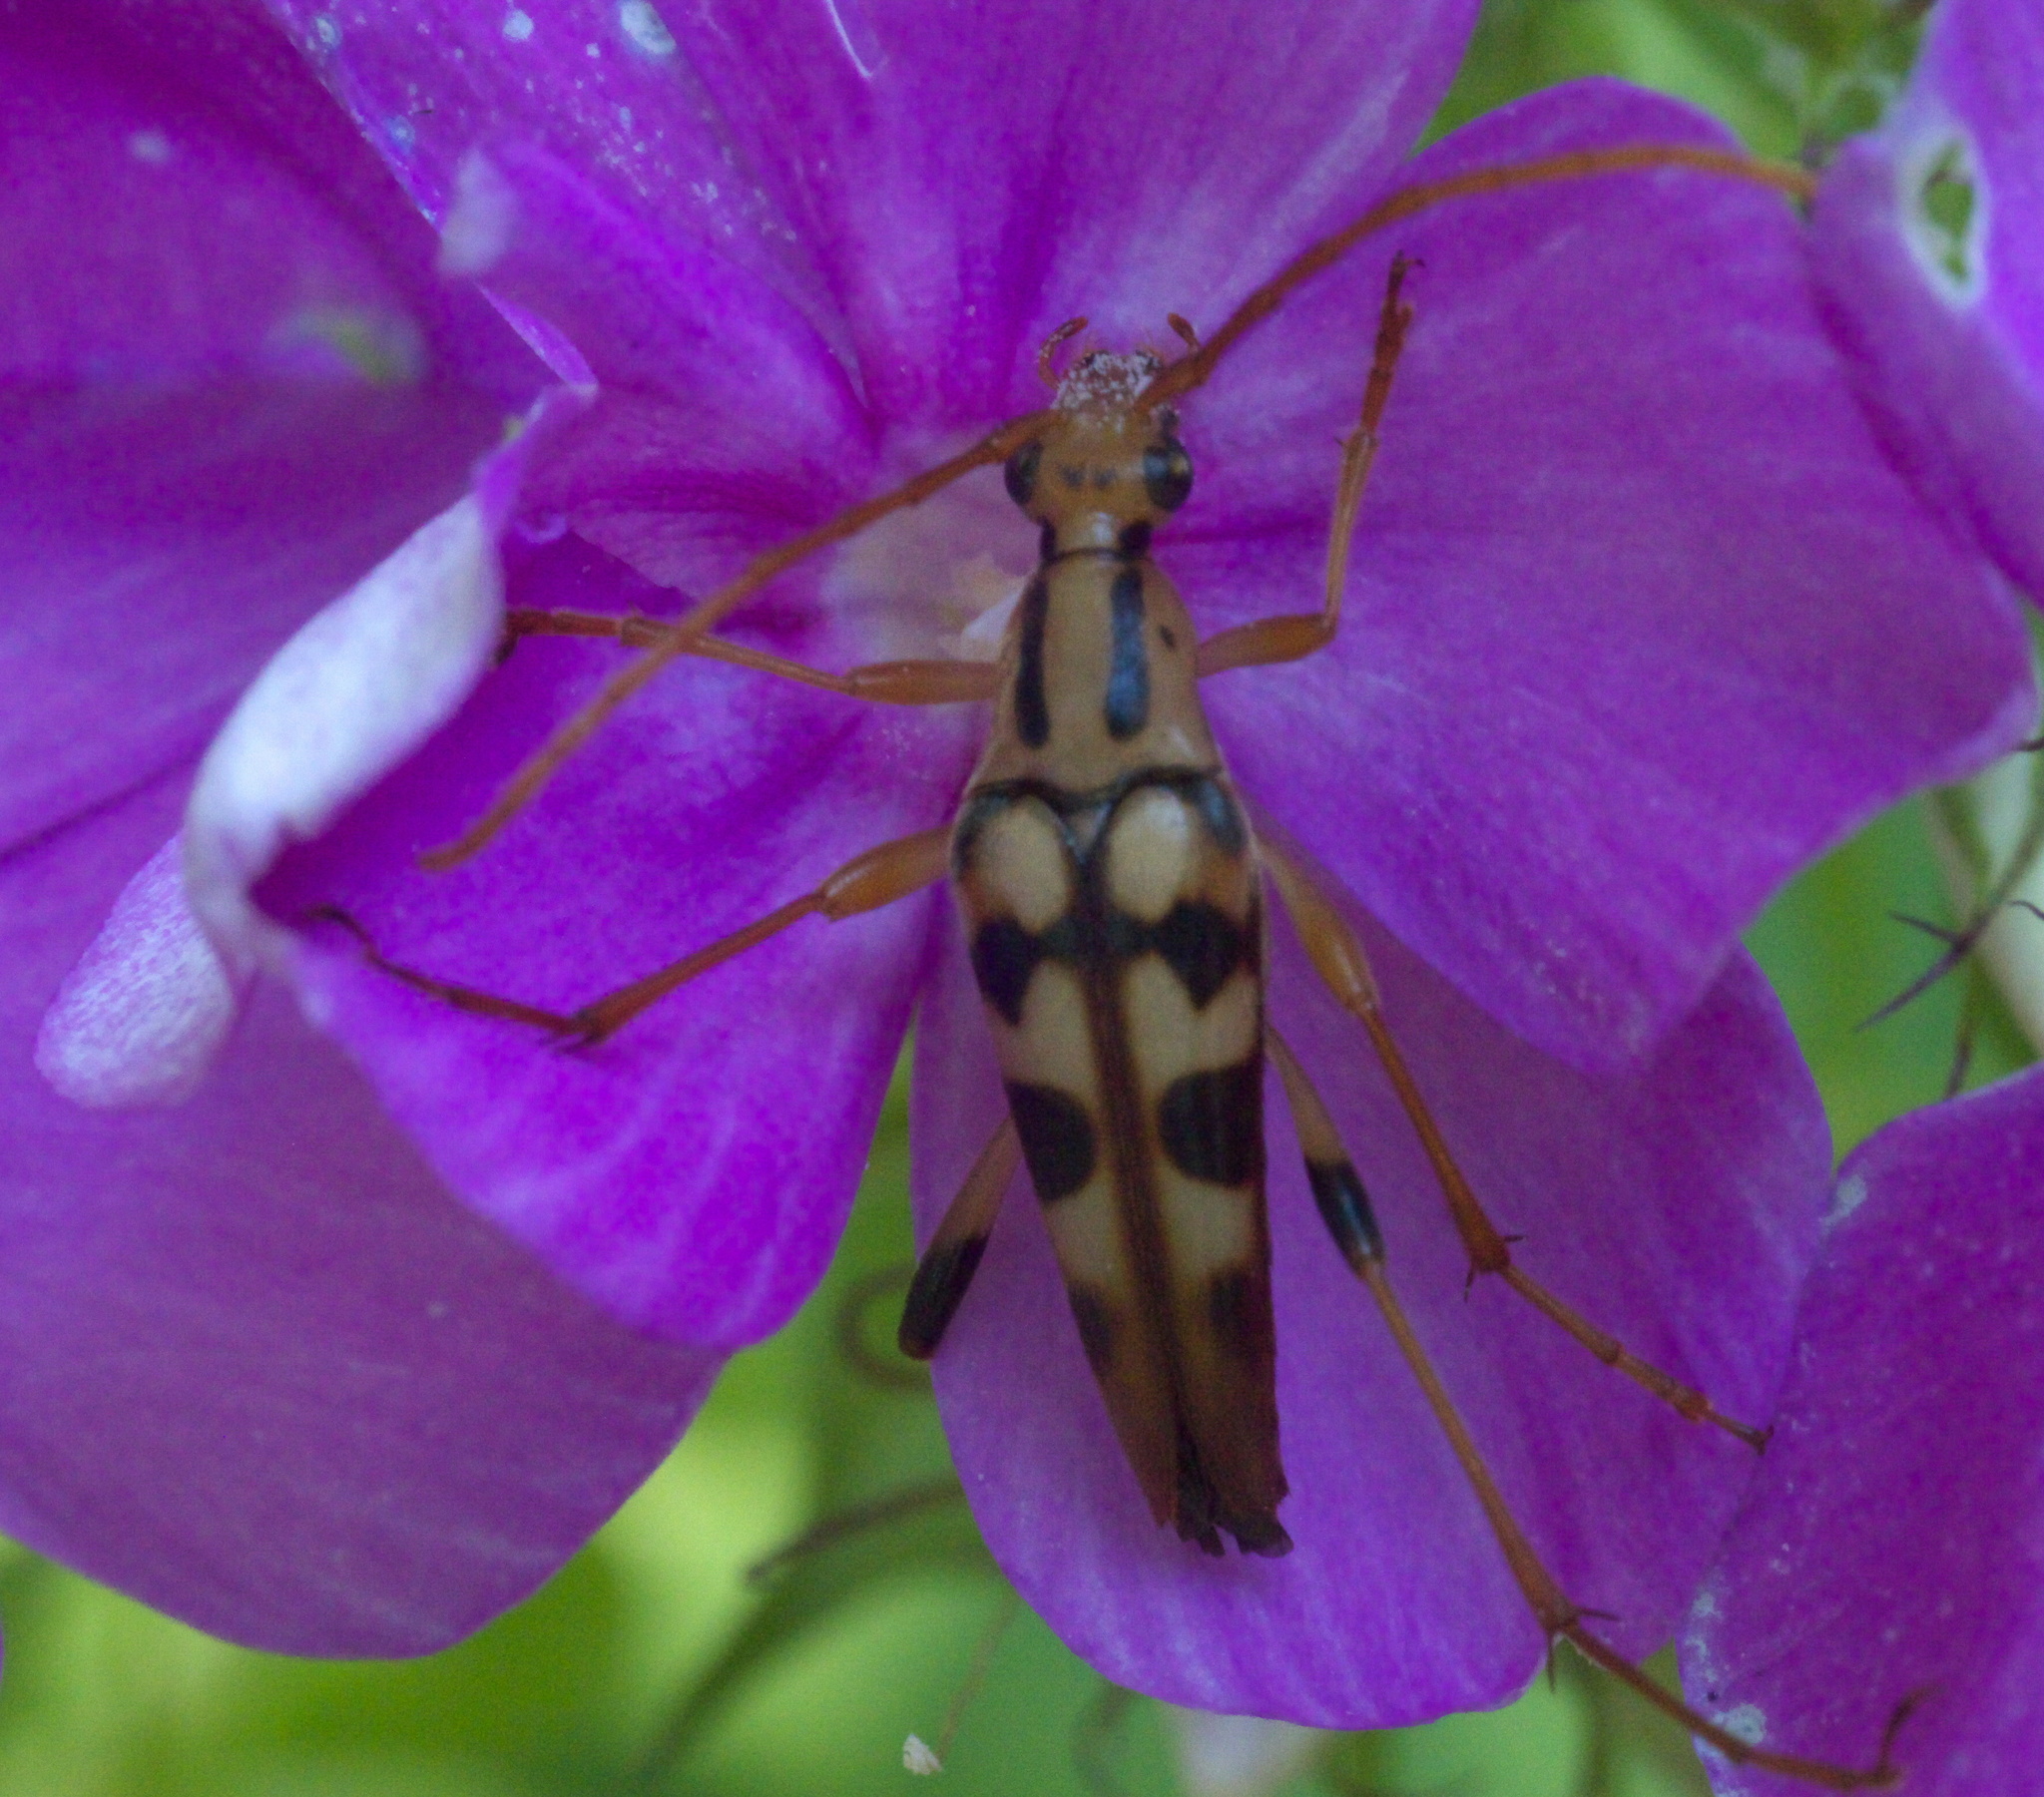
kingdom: Animalia
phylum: Arthropoda
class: Insecta
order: Coleoptera
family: Cerambycidae
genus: Strangalia
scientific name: Strangalia luteicornis
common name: Yellow-horned flower longhorn beetle
